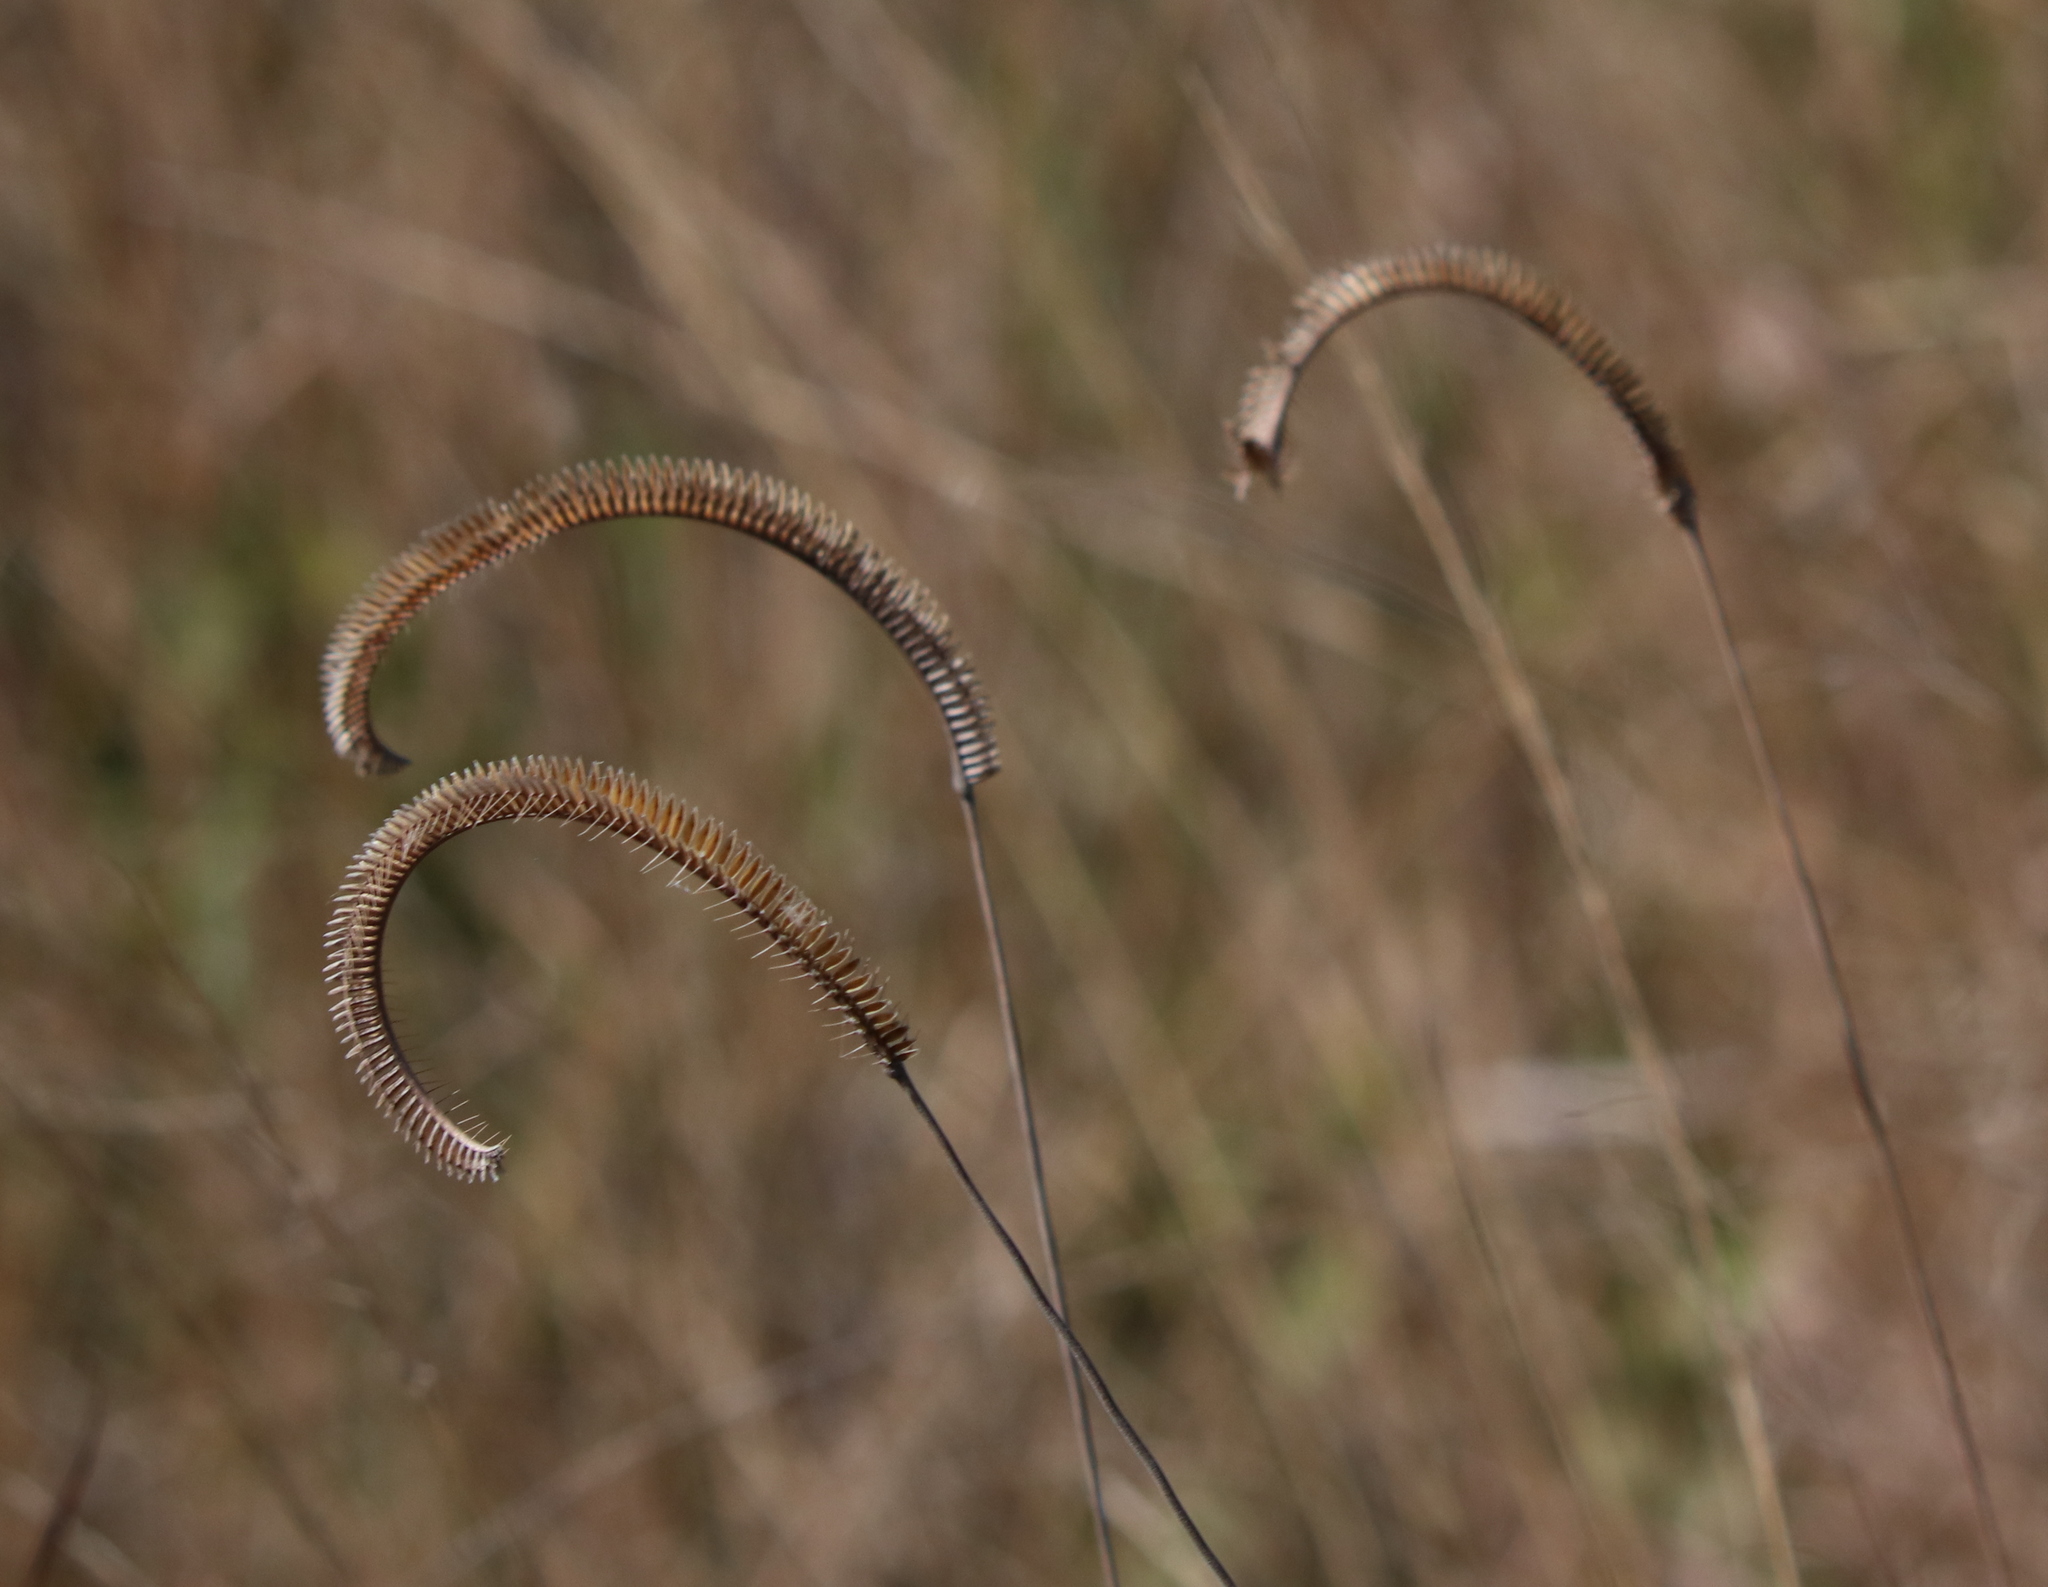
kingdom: Plantae
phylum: Tracheophyta
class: Liliopsida
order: Poales
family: Poaceae
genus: Ctenium
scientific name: Ctenium aromaticum
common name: Toothache grass
